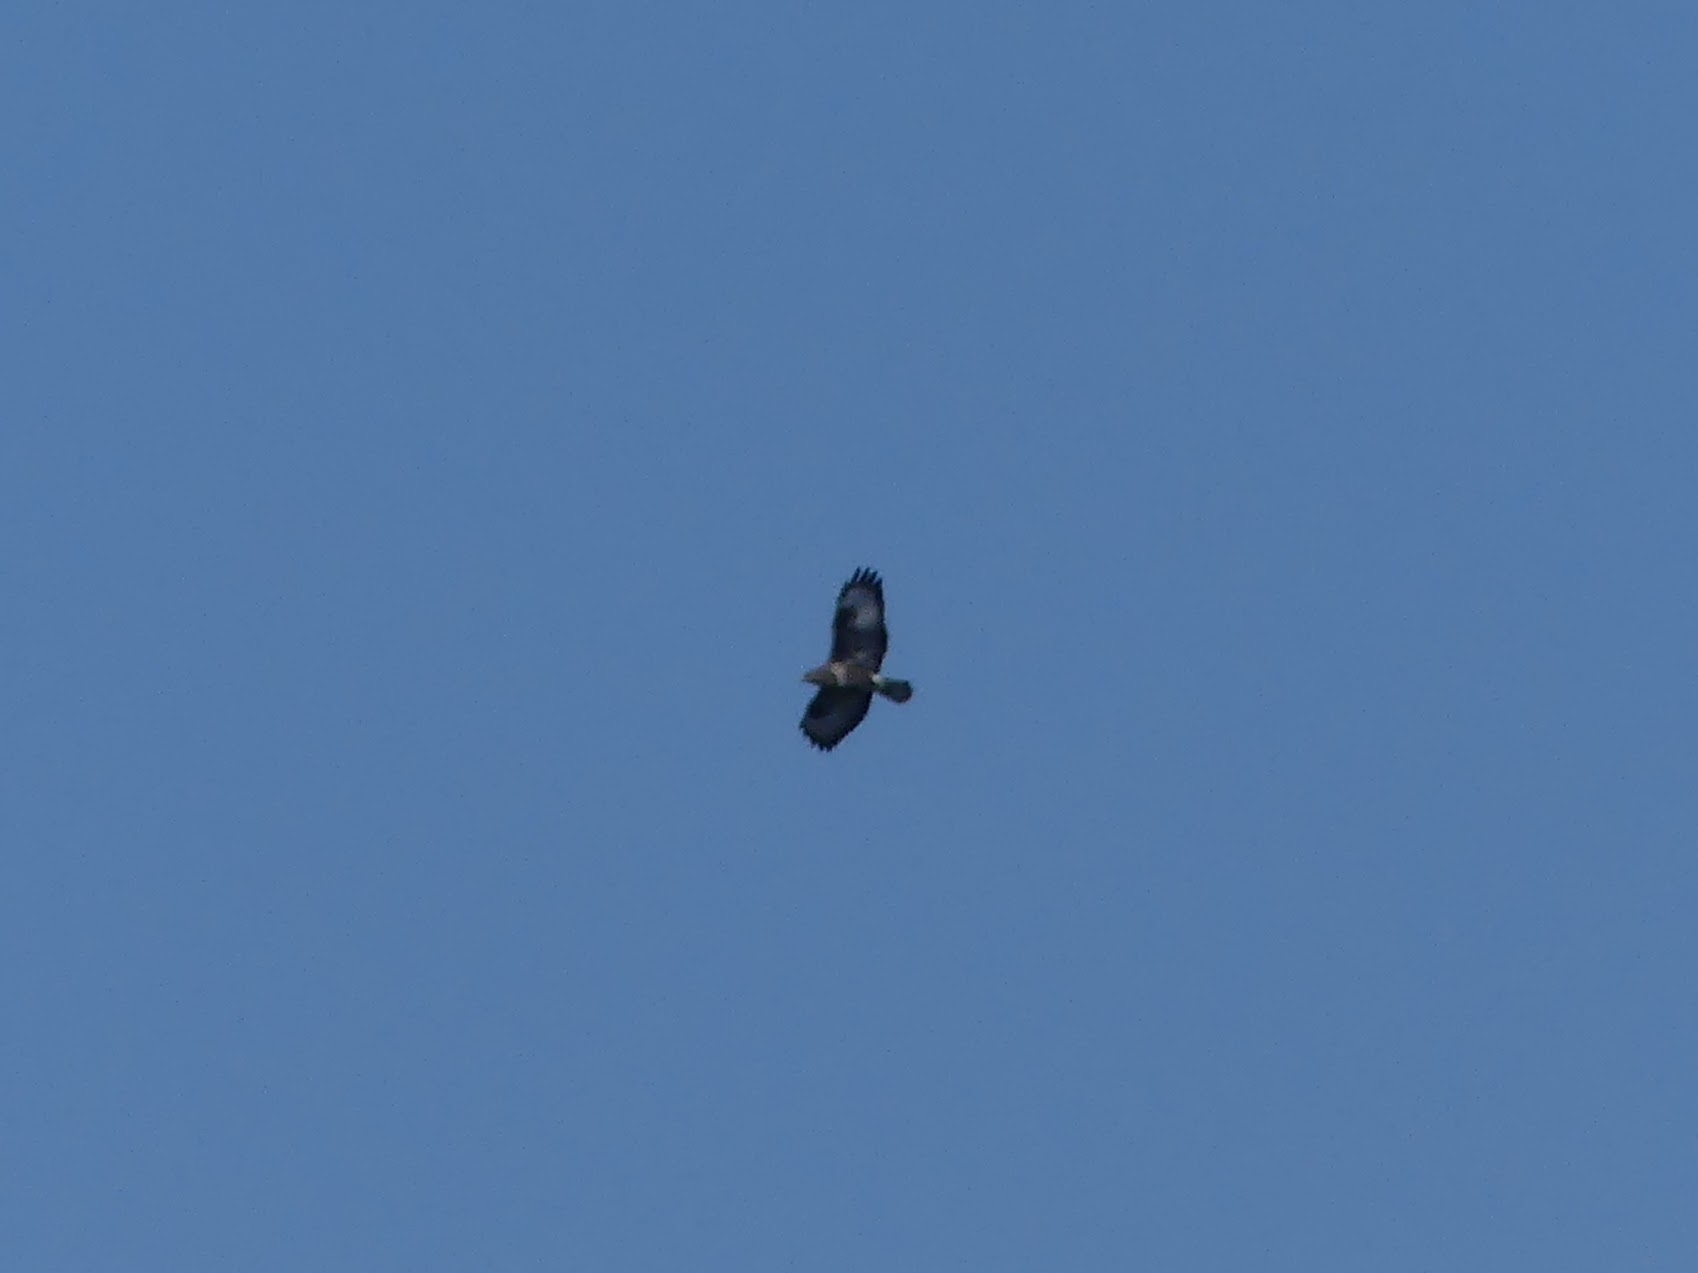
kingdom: Animalia
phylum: Chordata
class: Aves
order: Accipitriformes
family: Accipitridae
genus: Buteo
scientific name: Buteo buteo
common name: Common buzzard
